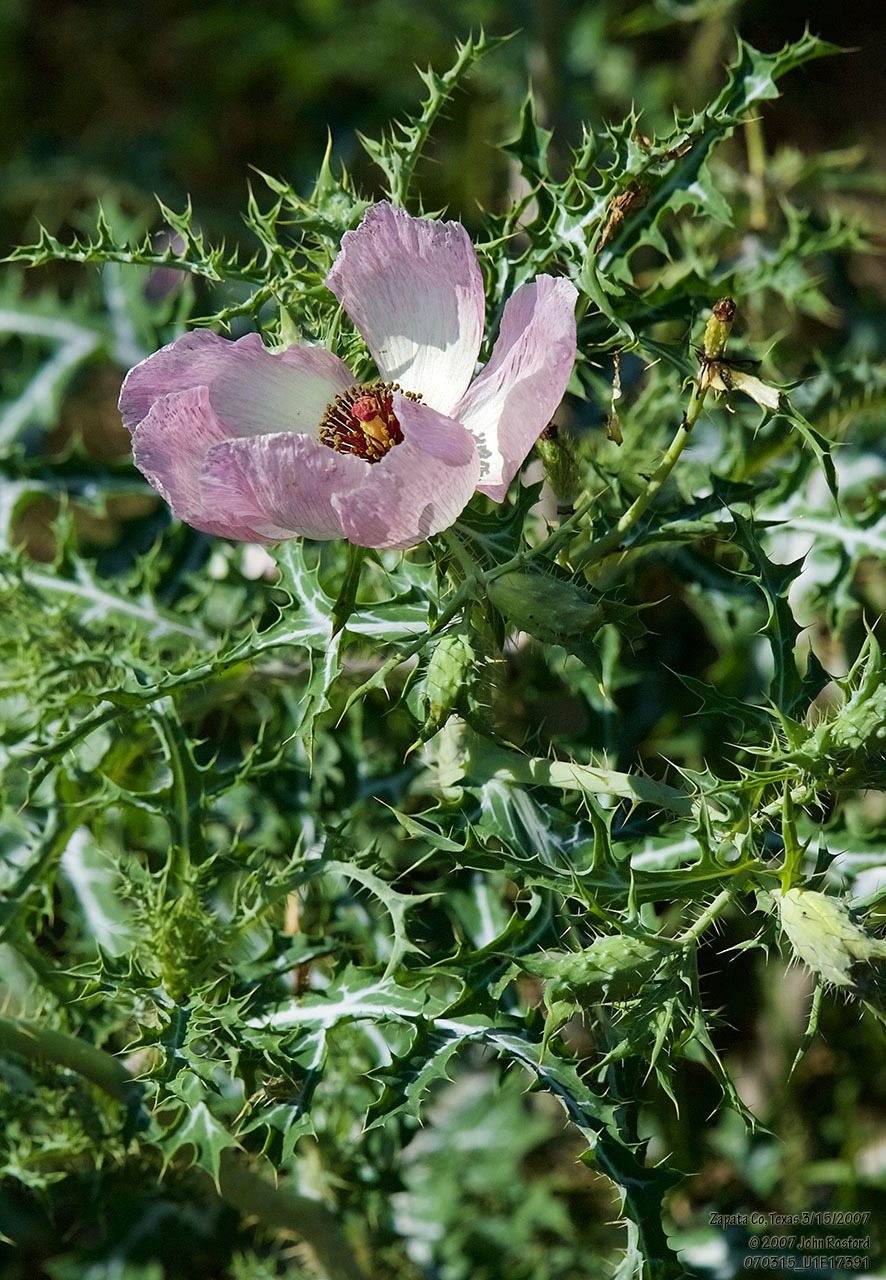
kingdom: Plantae
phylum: Tracheophyta
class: Magnoliopsida
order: Ranunculales
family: Papaveraceae
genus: Argemone
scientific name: Argemone sanguinea
